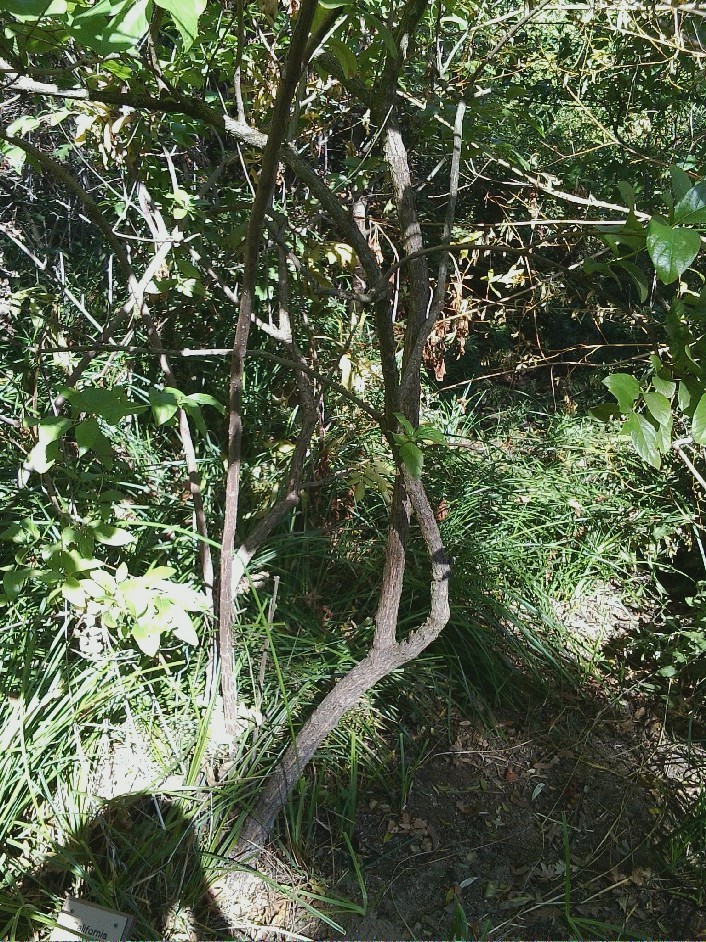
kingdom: Plantae
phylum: Tracheophyta
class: Magnoliopsida
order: Gentianales
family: Rubiaceae
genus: Cephalanthus
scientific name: Cephalanthus occidentalis
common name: Button-willow
